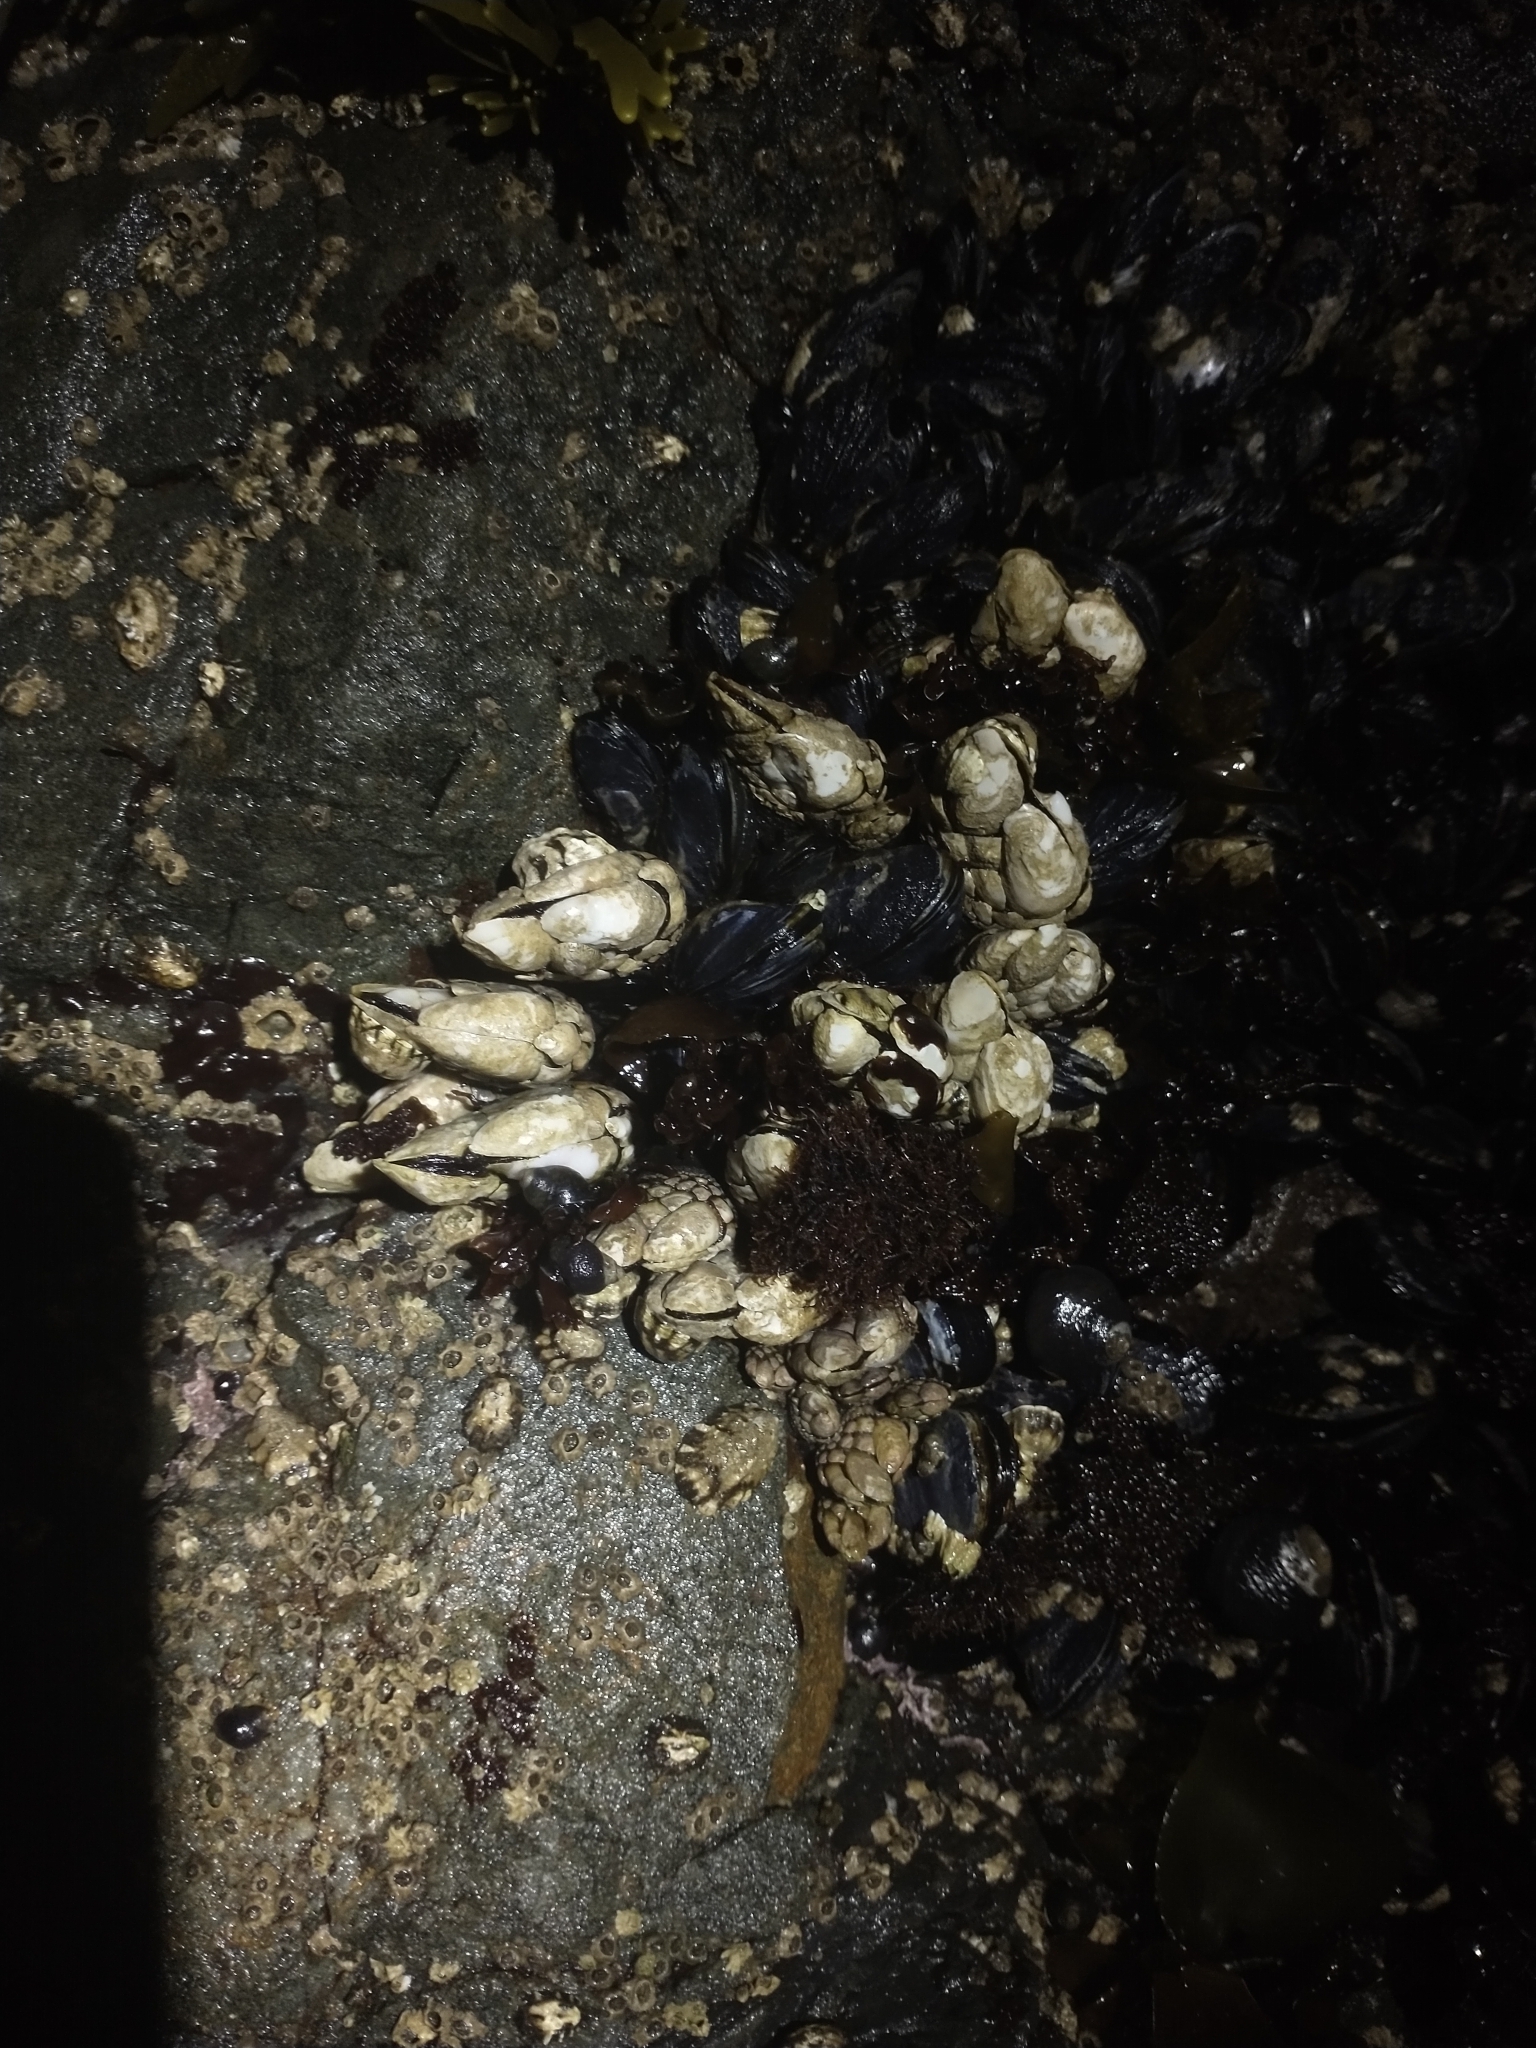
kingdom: Animalia
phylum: Arthropoda
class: Maxillopoda
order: Pedunculata
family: Pollicipedidae
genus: Pollicipes
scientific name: Pollicipes polymerus
